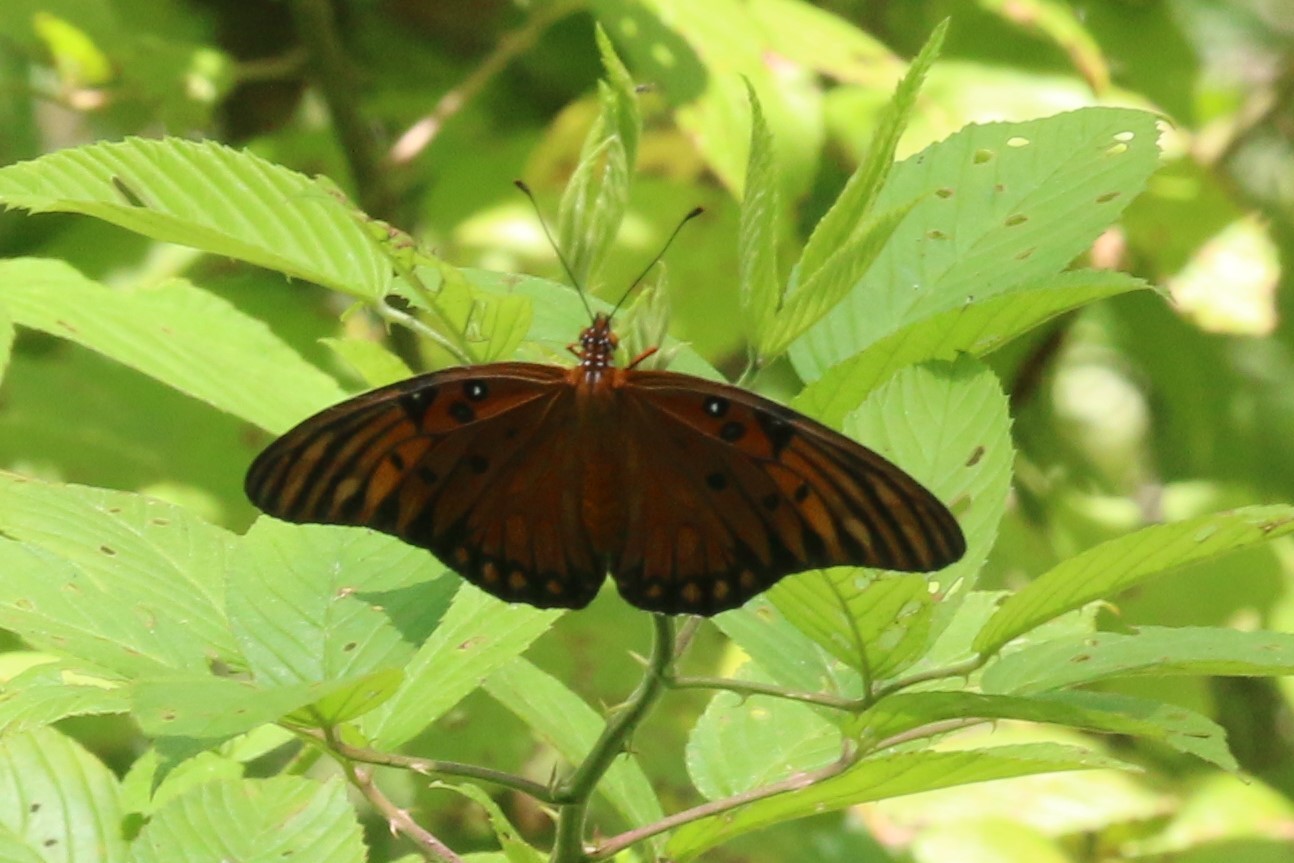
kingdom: Animalia
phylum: Arthropoda
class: Insecta
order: Lepidoptera
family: Nymphalidae
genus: Dione
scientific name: Dione vanillae
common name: Gulf fritillary
